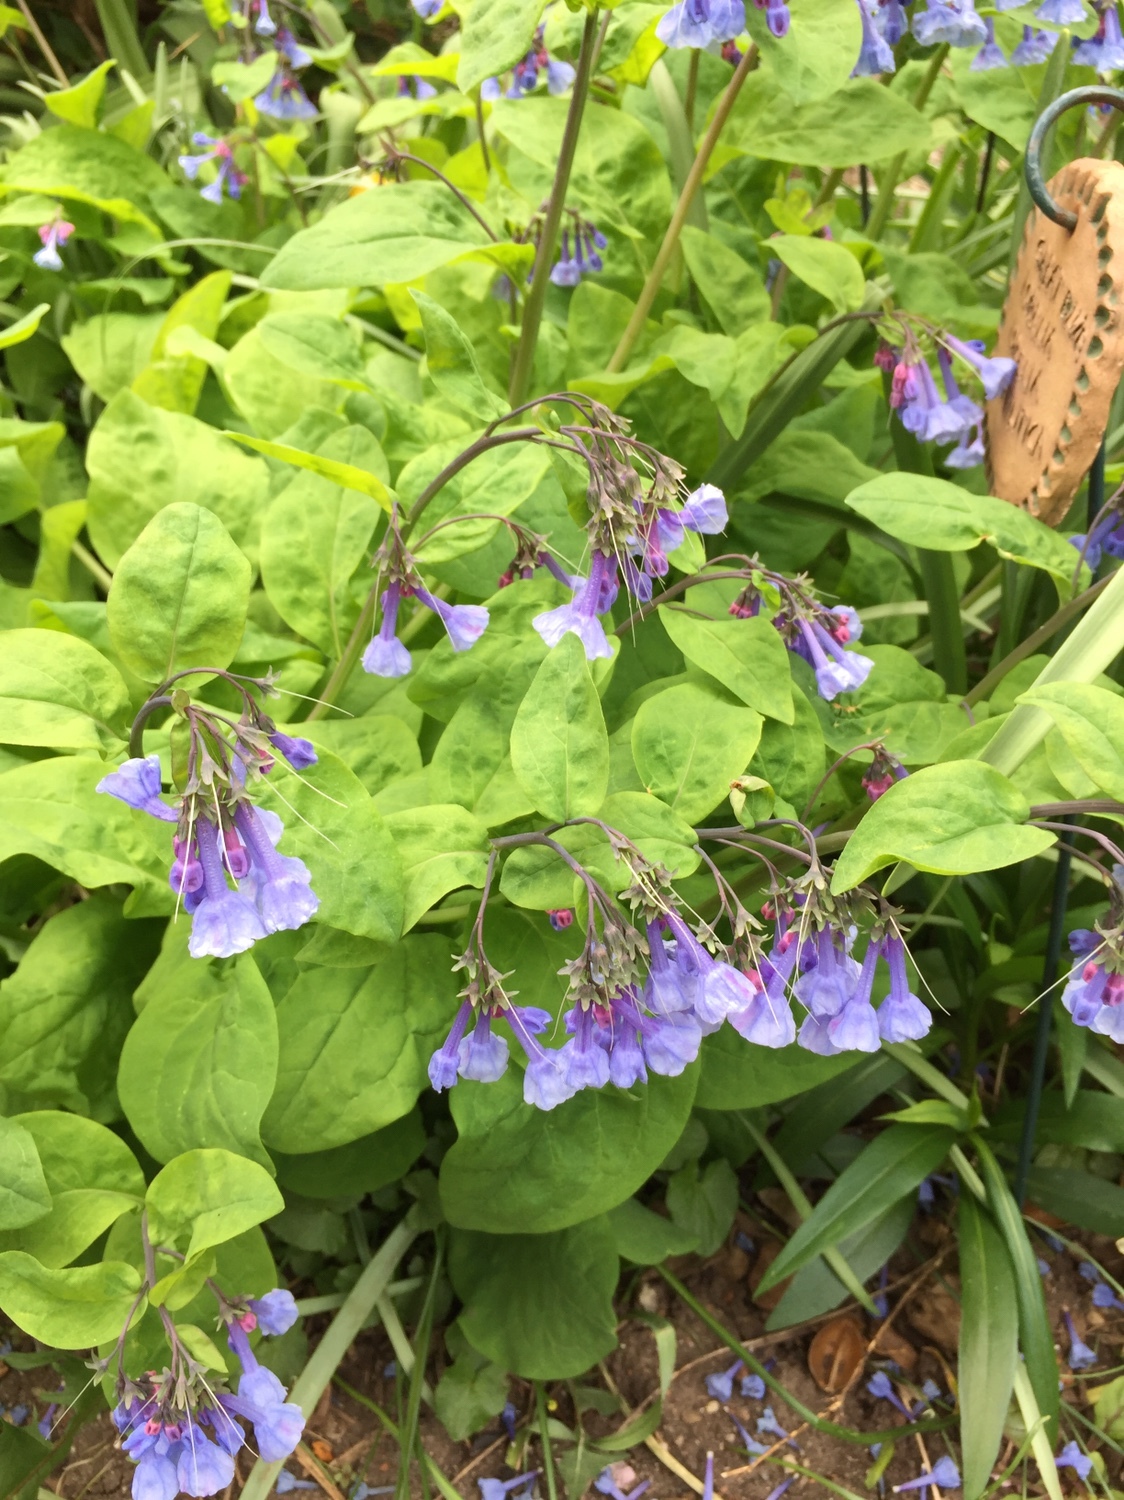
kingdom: Plantae
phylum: Tracheophyta
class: Magnoliopsida
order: Boraginales
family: Boraginaceae
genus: Mertensia
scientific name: Mertensia virginica
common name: Virginia bluebells
